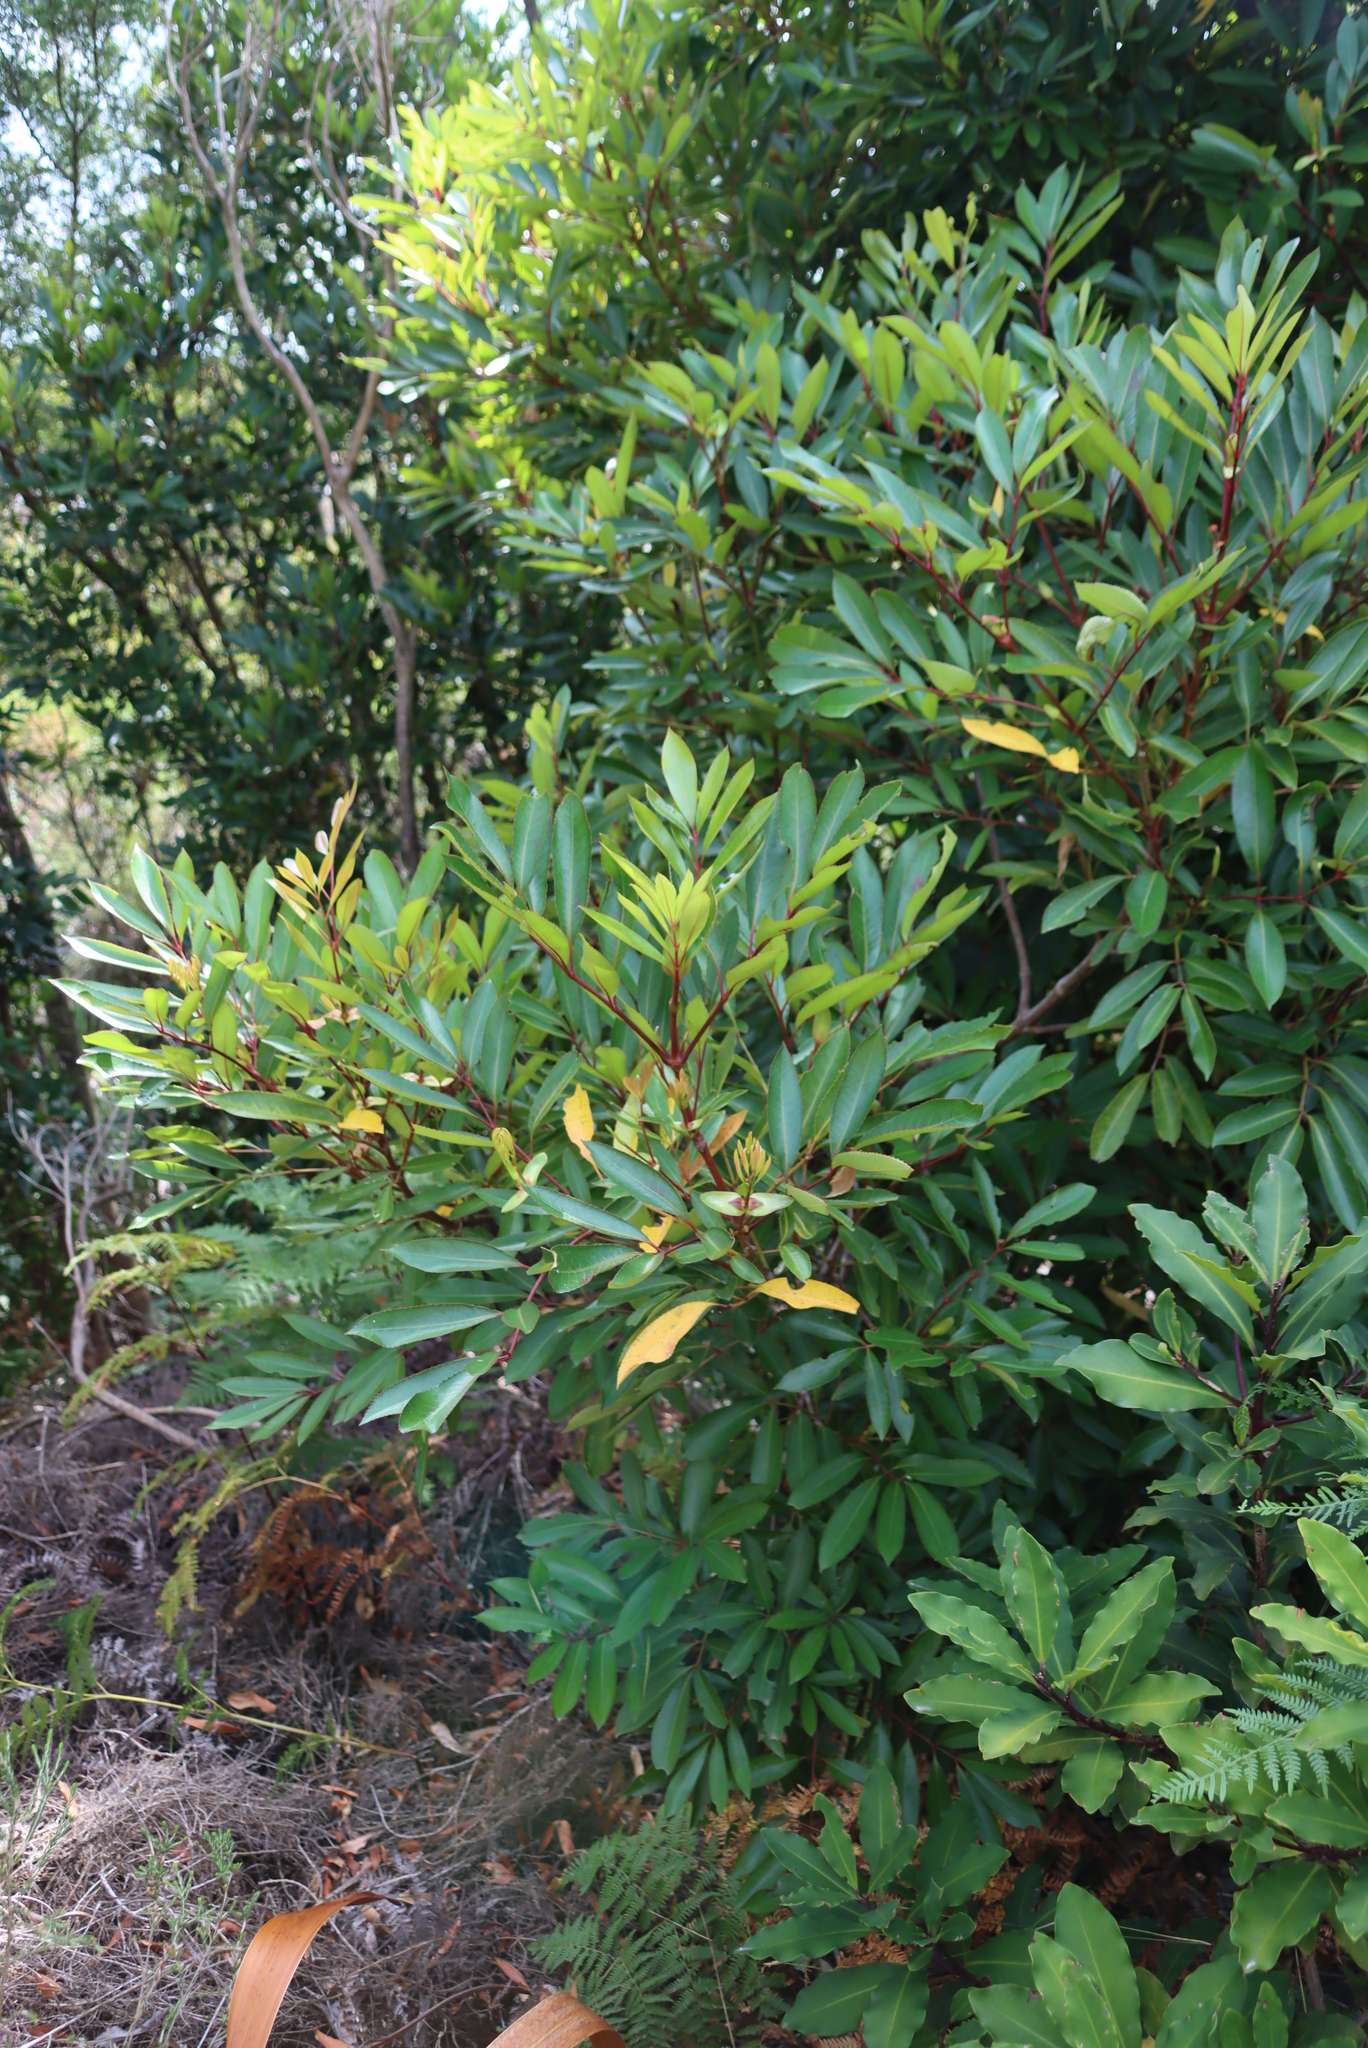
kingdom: Plantae
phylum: Tracheophyta
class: Magnoliopsida
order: Oxalidales
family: Cunoniaceae
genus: Cunonia
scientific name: Cunonia capensis
